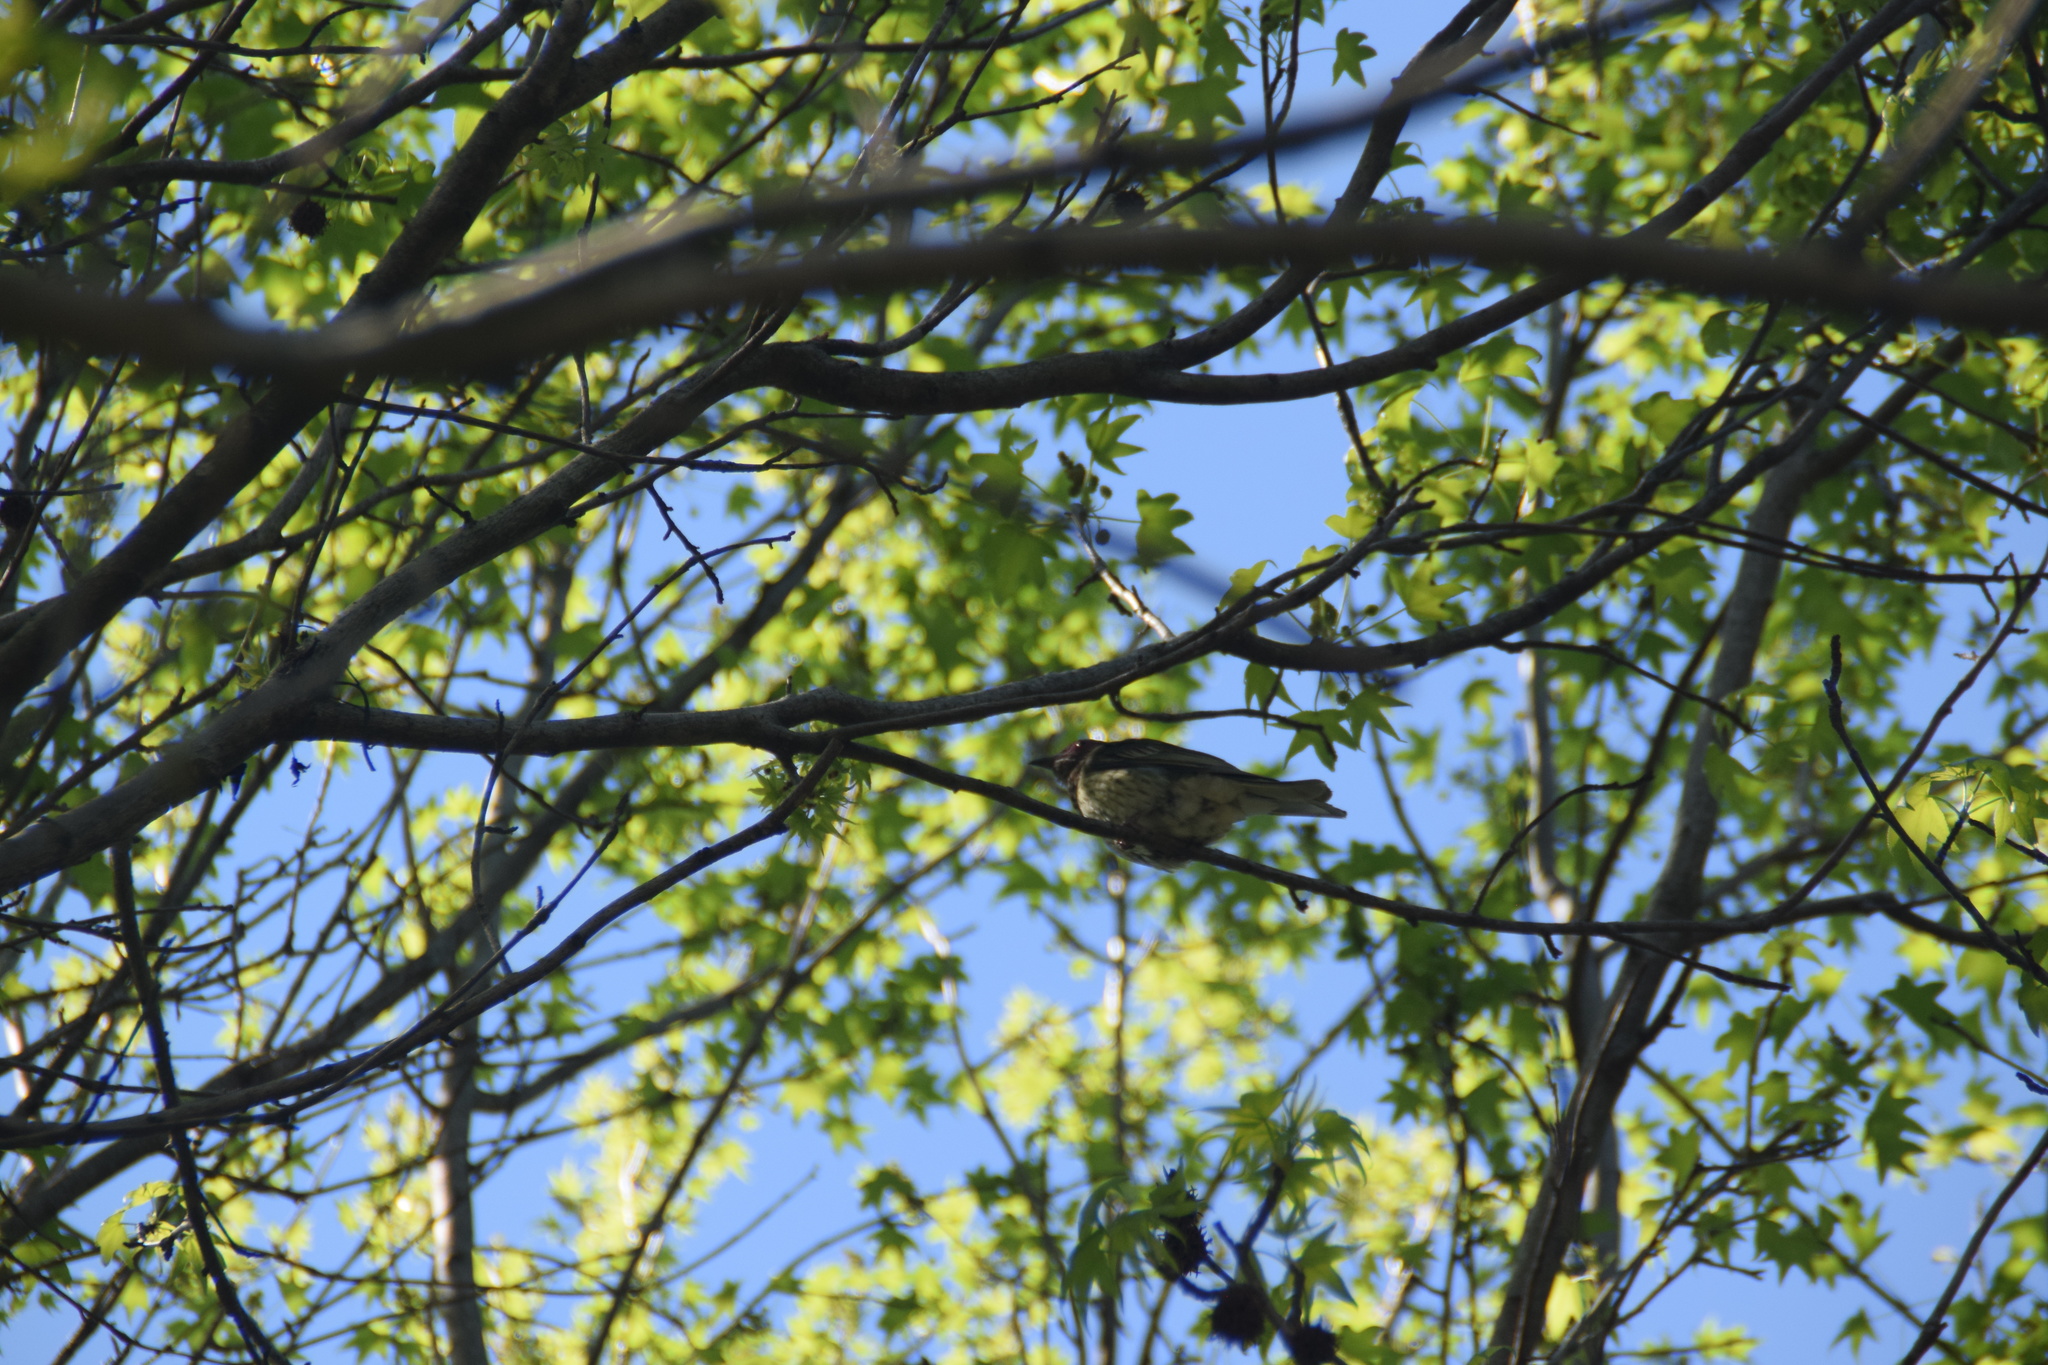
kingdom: Animalia
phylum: Chordata
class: Aves
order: Passeriformes
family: Oriolidae
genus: Sphecotheres
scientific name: Sphecotheres vieilloti
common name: Australasian figbird
